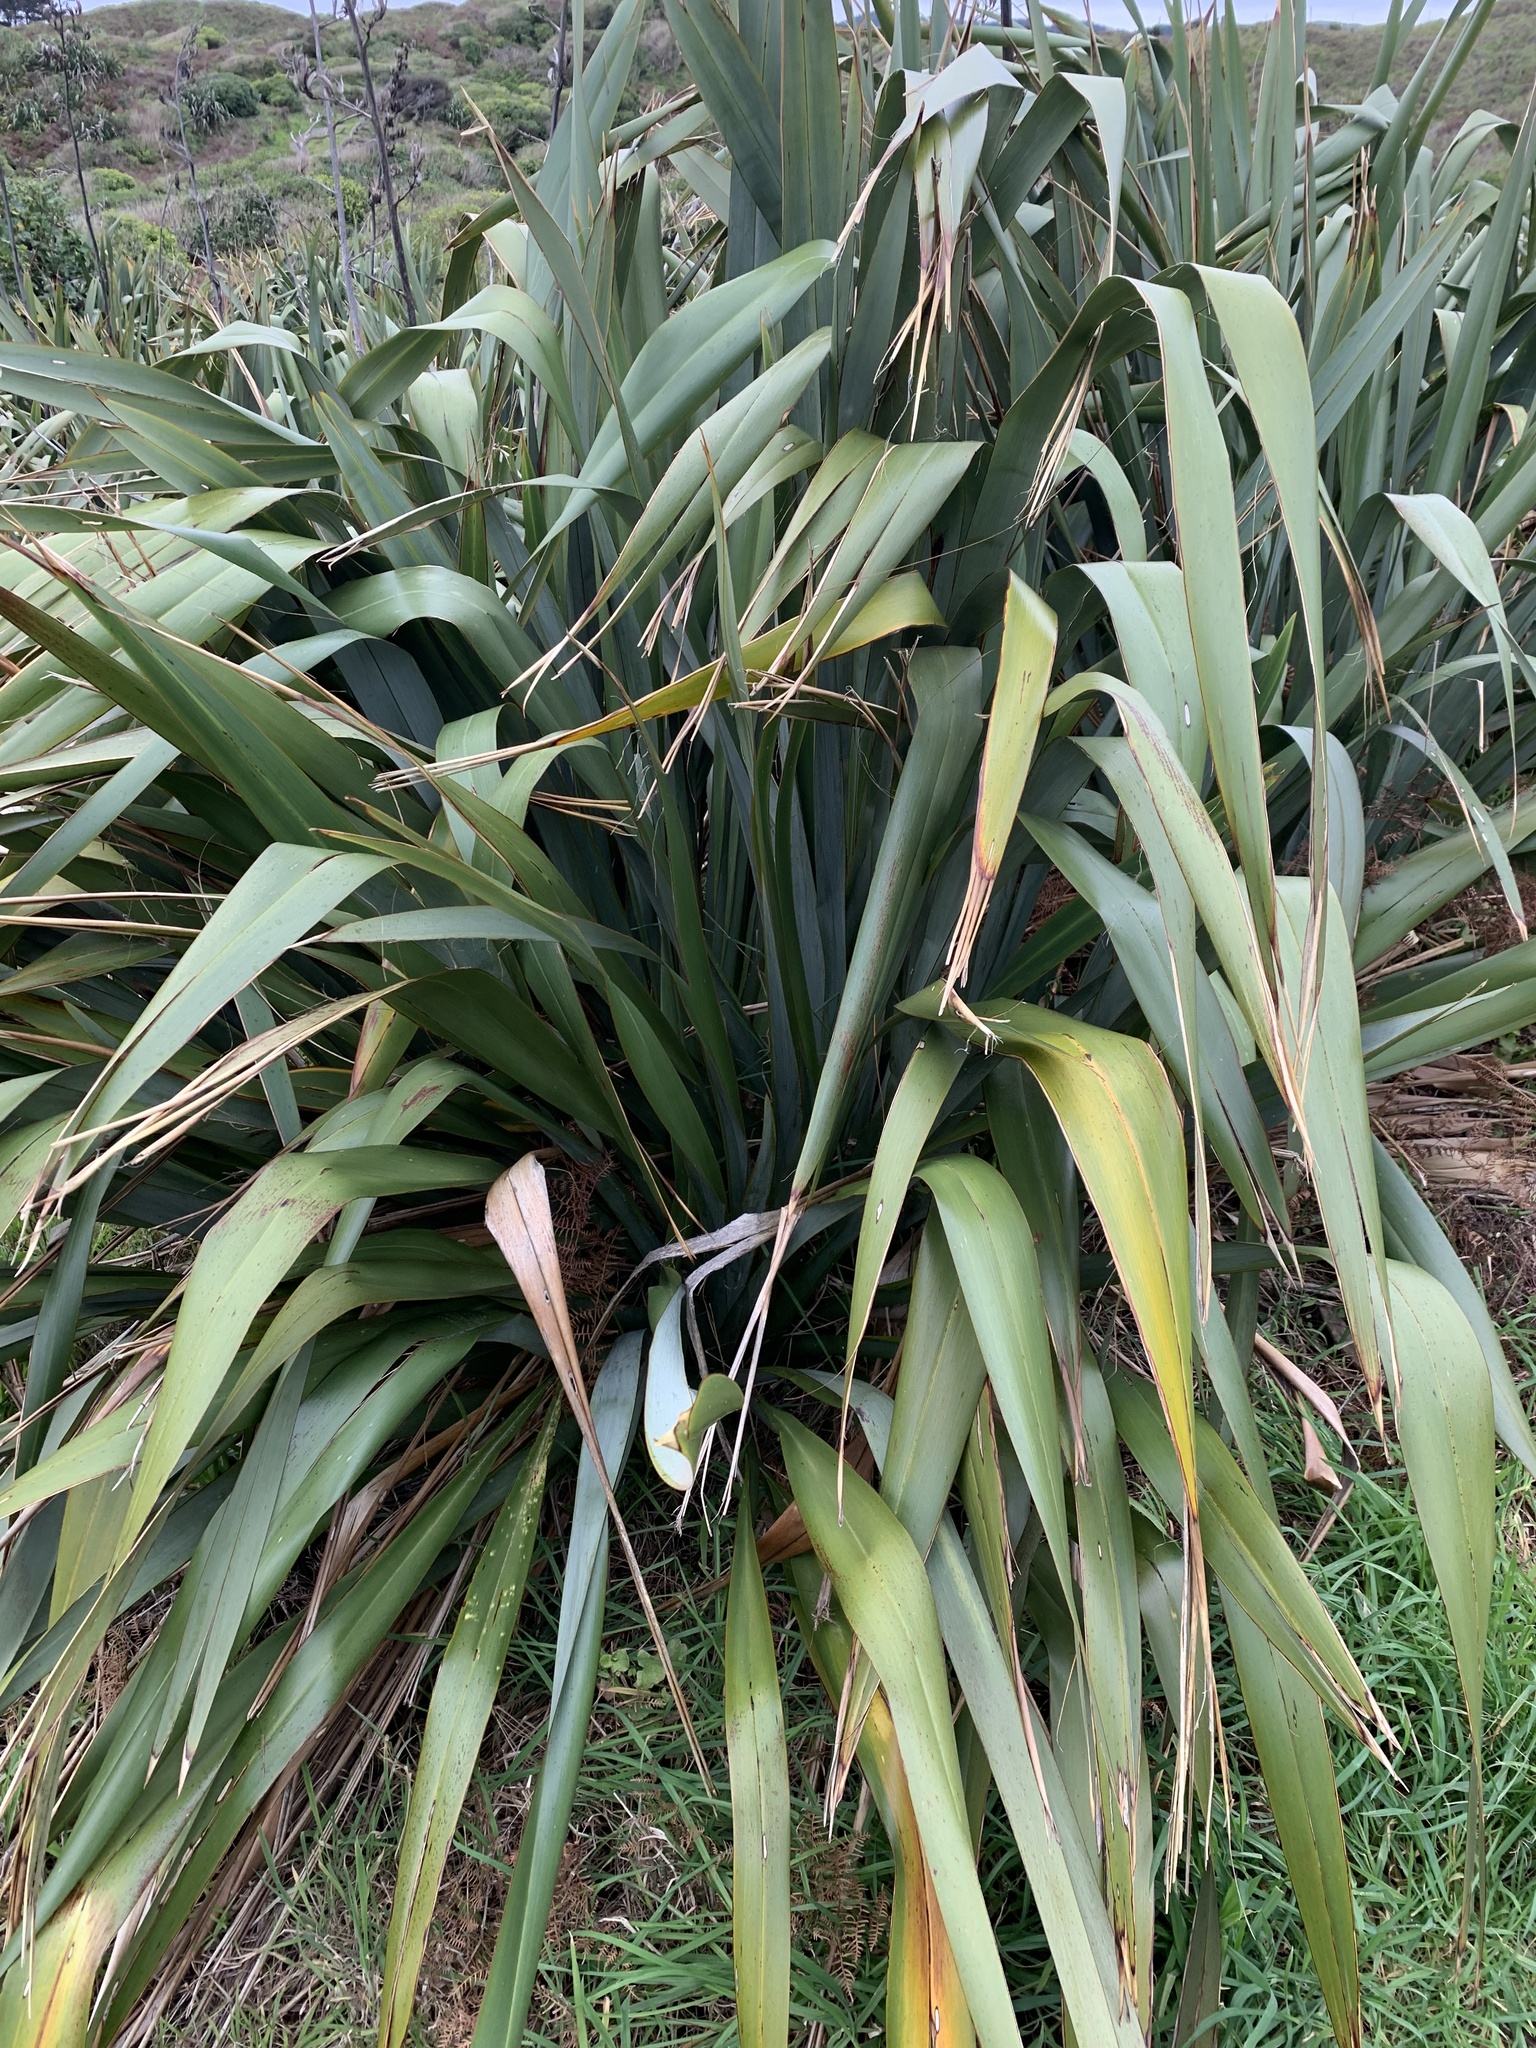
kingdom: Plantae
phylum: Tracheophyta
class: Liliopsida
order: Asparagales
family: Asphodelaceae
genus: Phormium
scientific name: Phormium tenax
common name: New zealand flax
